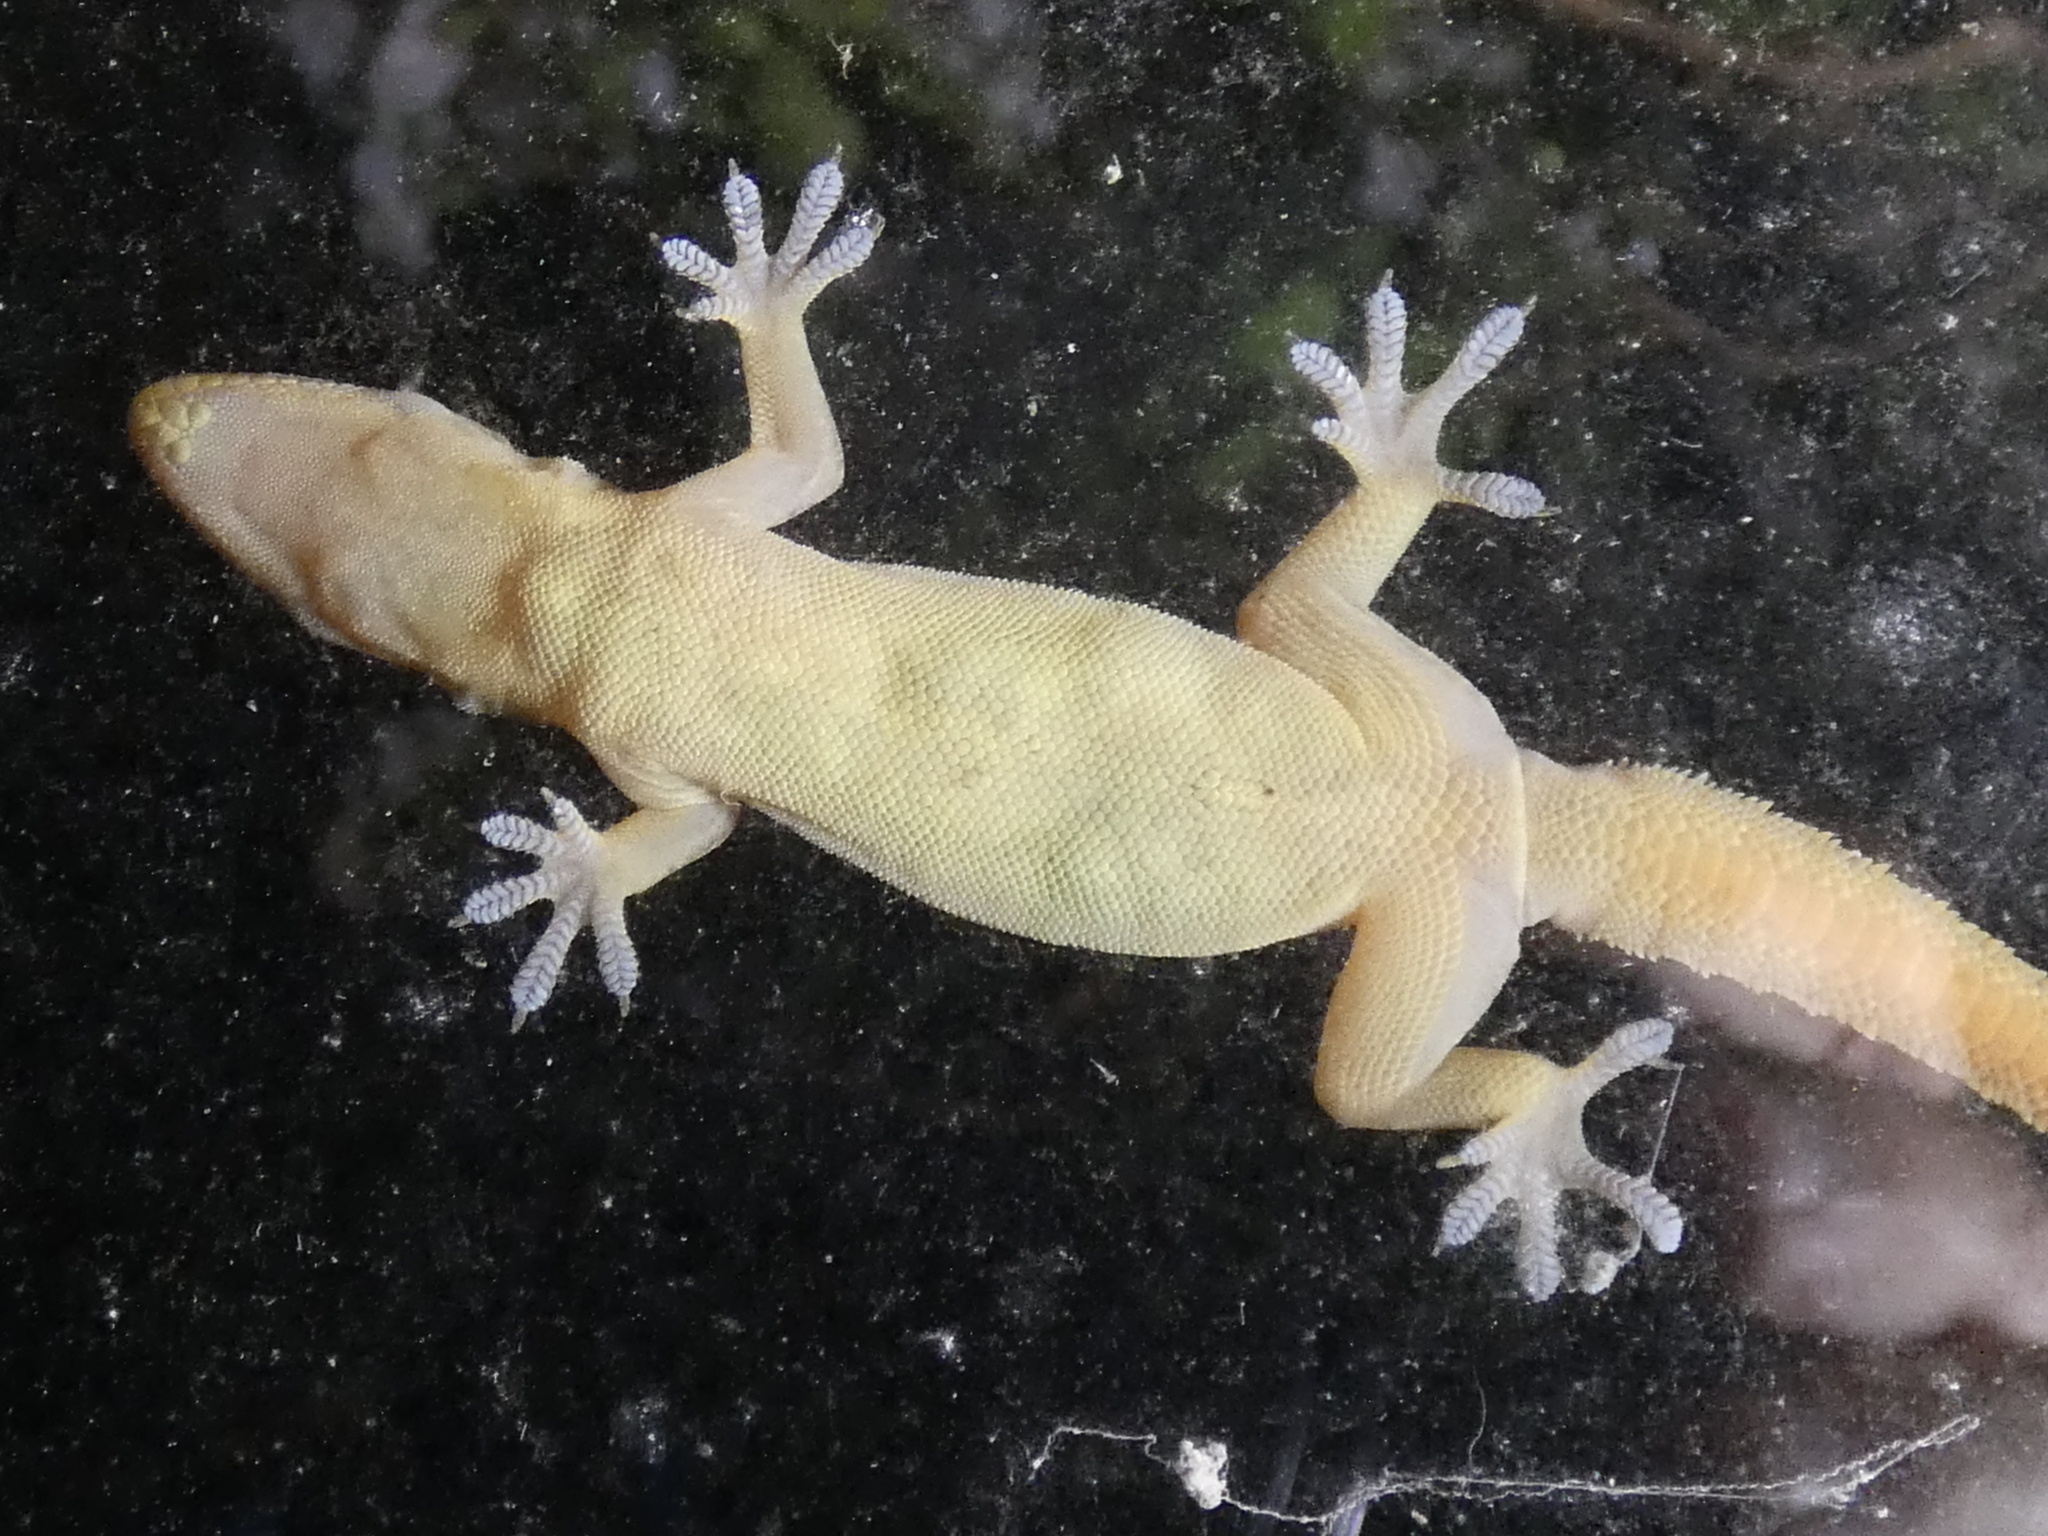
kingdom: Animalia
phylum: Chordata
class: Squamata
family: Gekkonidae
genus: Hemidactylus
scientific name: Hemidactylus garnotii
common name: Indo-pacific gecko
